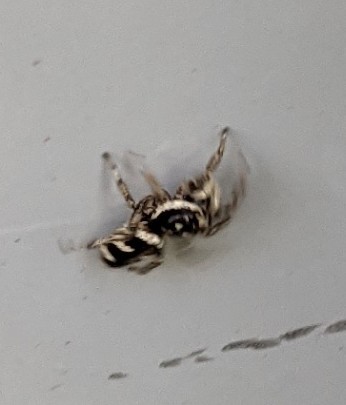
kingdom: Animalia
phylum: Arthropoda
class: Arachnida
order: Araneae
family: Salticidae
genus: Salticus
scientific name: Salticus scenicus
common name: Zebra jumper
